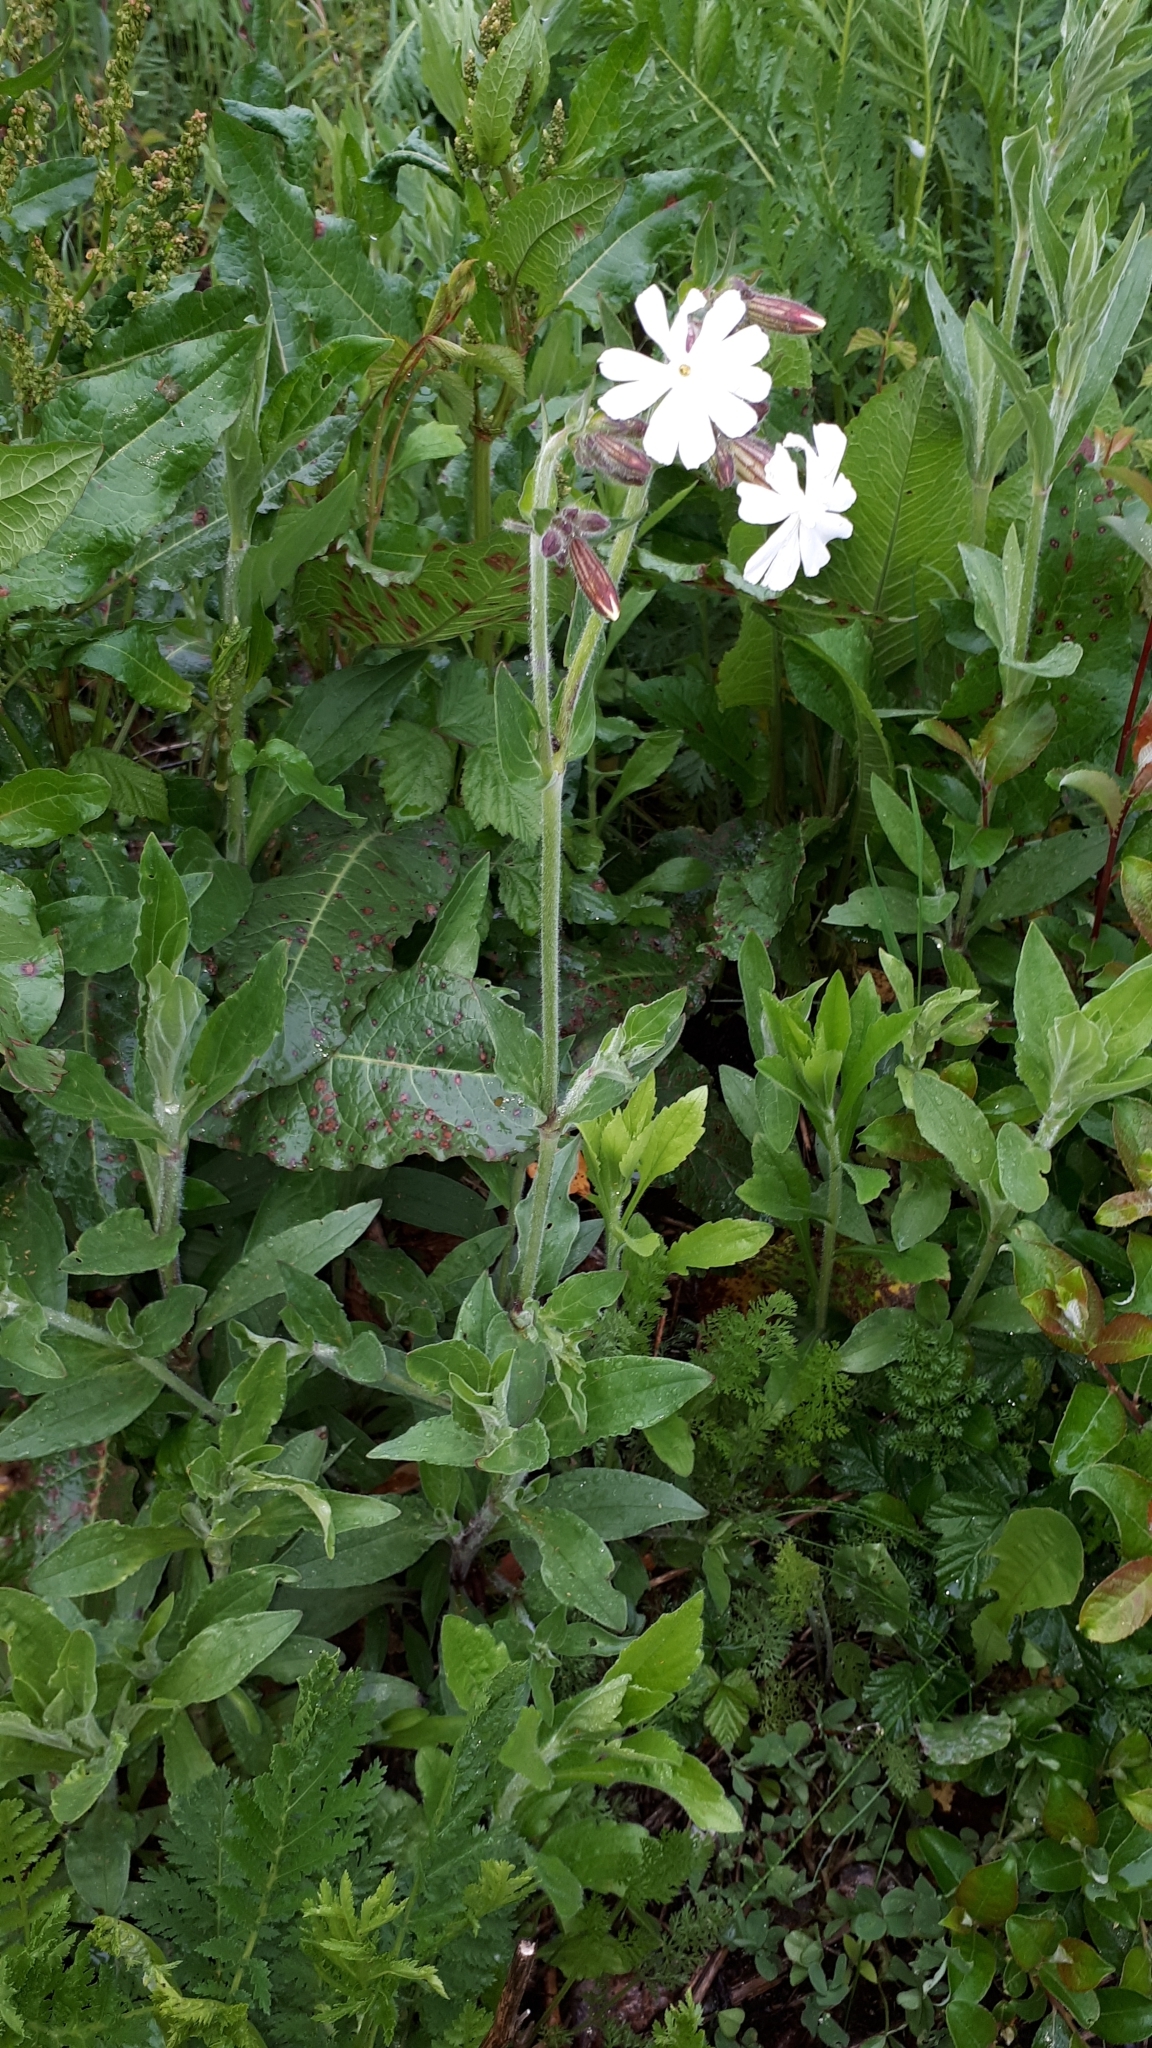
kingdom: Plantae
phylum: Tracheophyta
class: Magnoliopsida
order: Caryophyllales
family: Caryophyllaceae
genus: Silene
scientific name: Silene latifolia
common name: White campion
